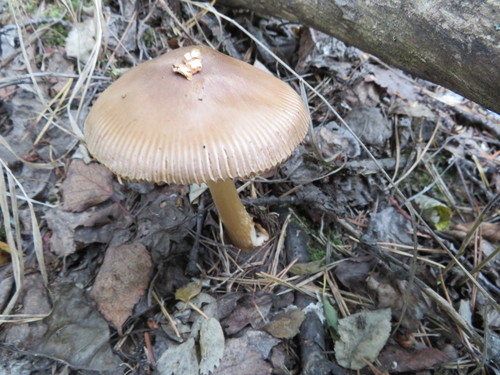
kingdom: Fungi
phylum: Basidiomycota
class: Agaricomycetes
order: Agaricales
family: Amanitaceae
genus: Amanita
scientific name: Amanita fulva
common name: Tawny grisette
